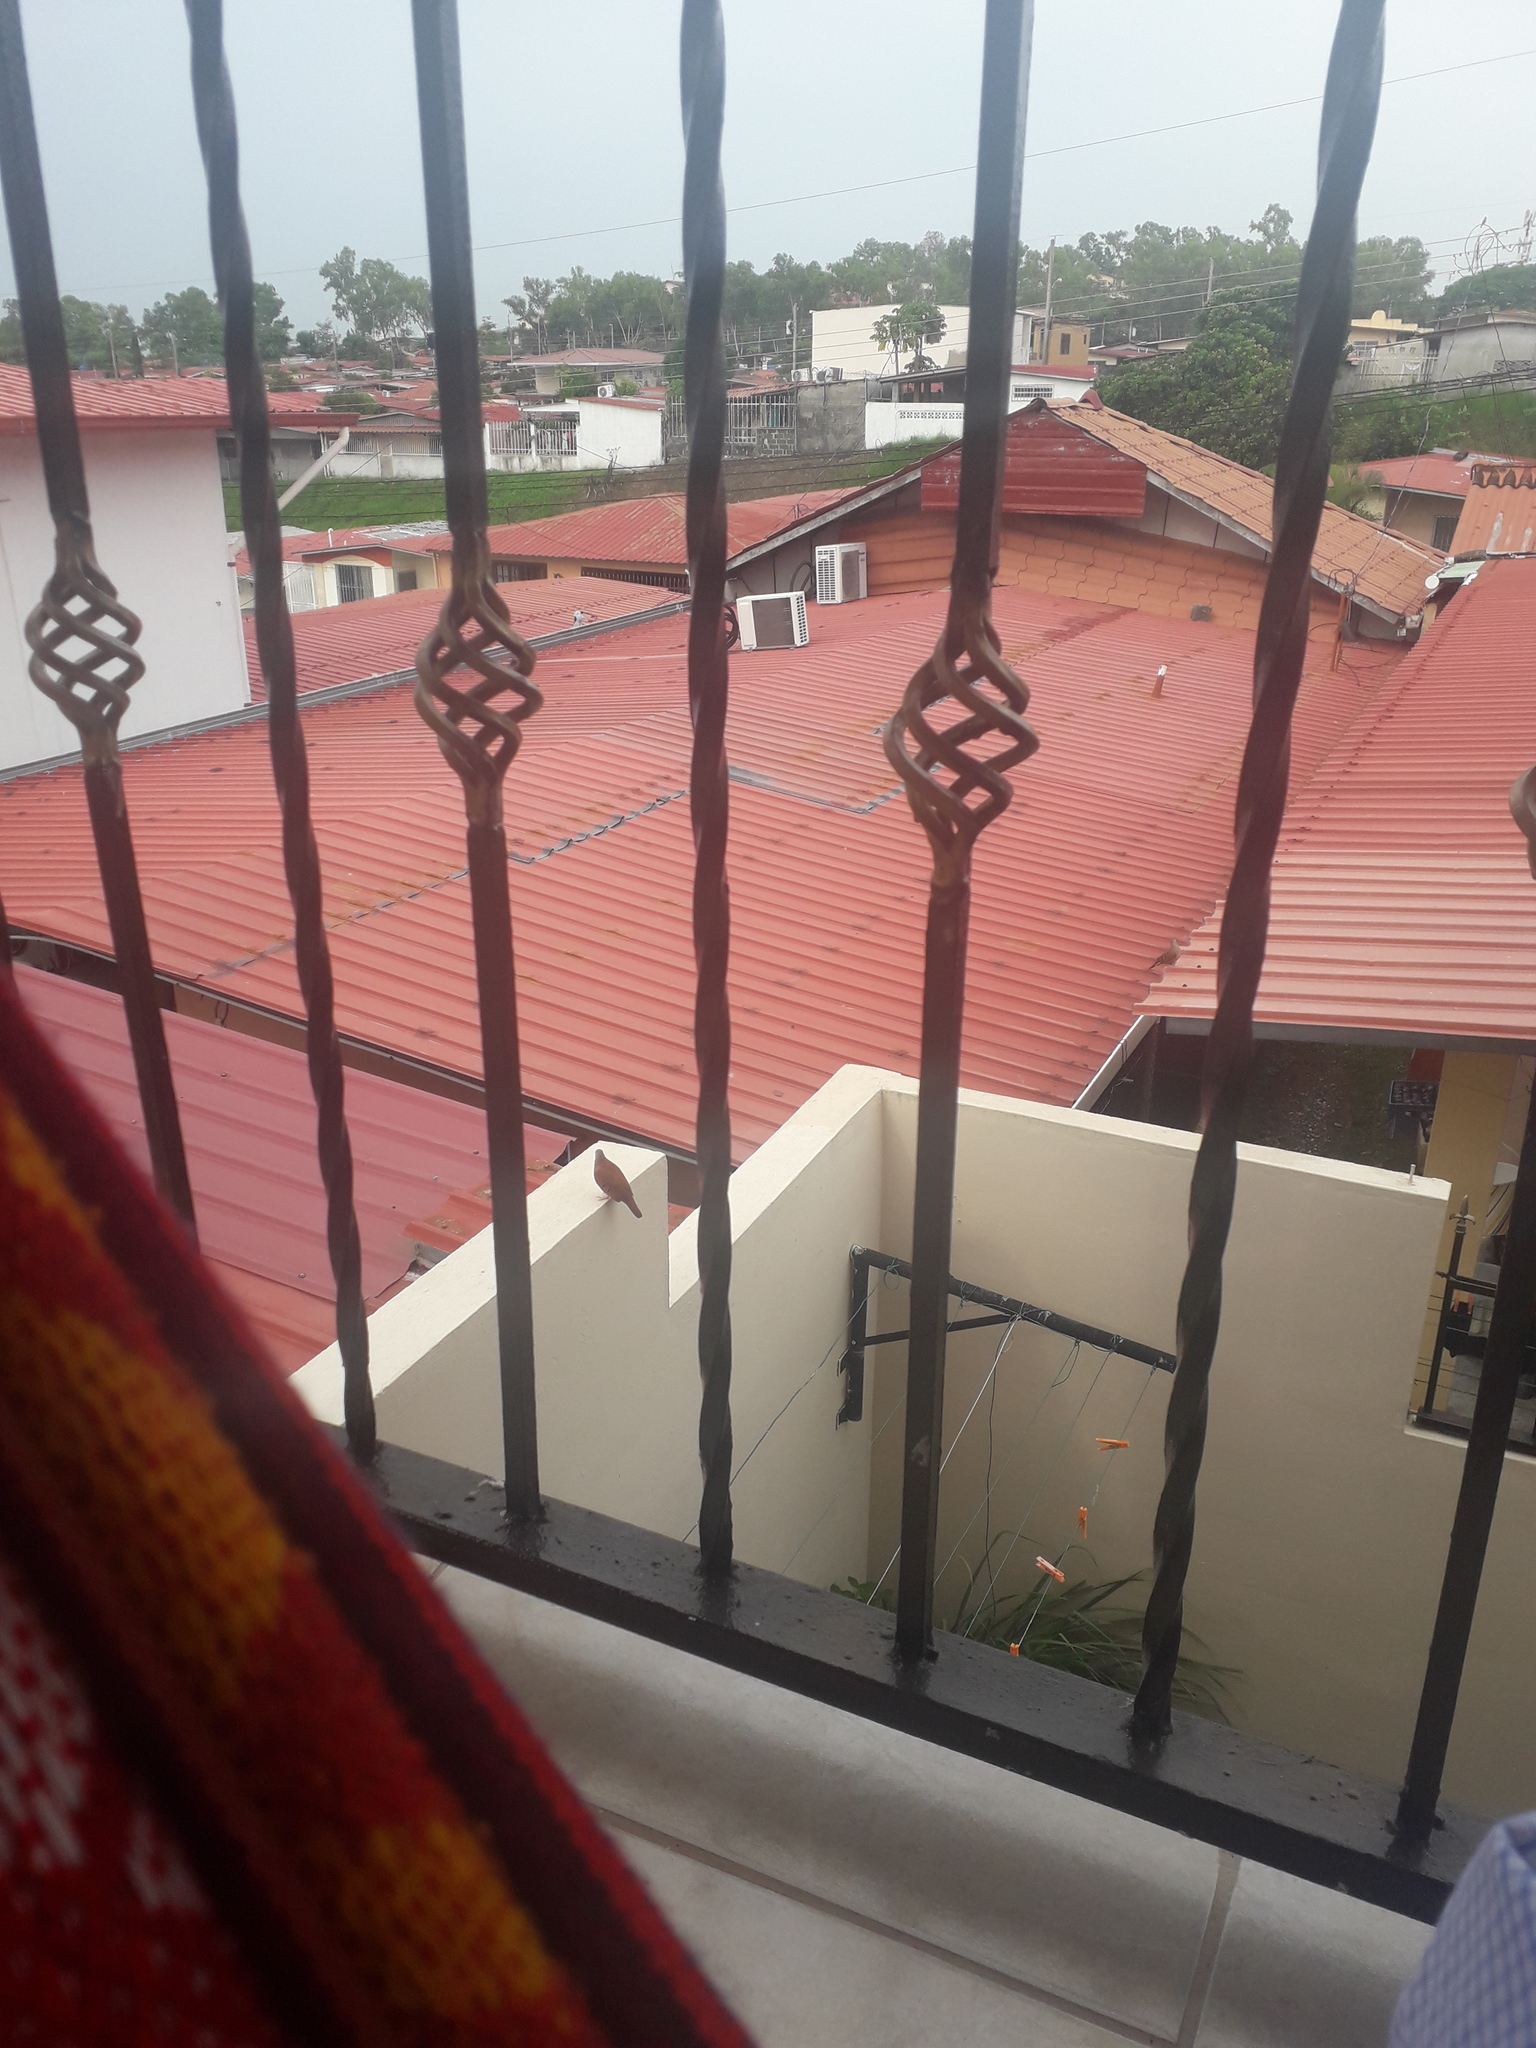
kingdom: Animalia
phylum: Chordata
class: Aves
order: Columbiformes
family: Columbidae
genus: Columbina
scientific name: Columbina talpacoti
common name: Ruddy ground dove
